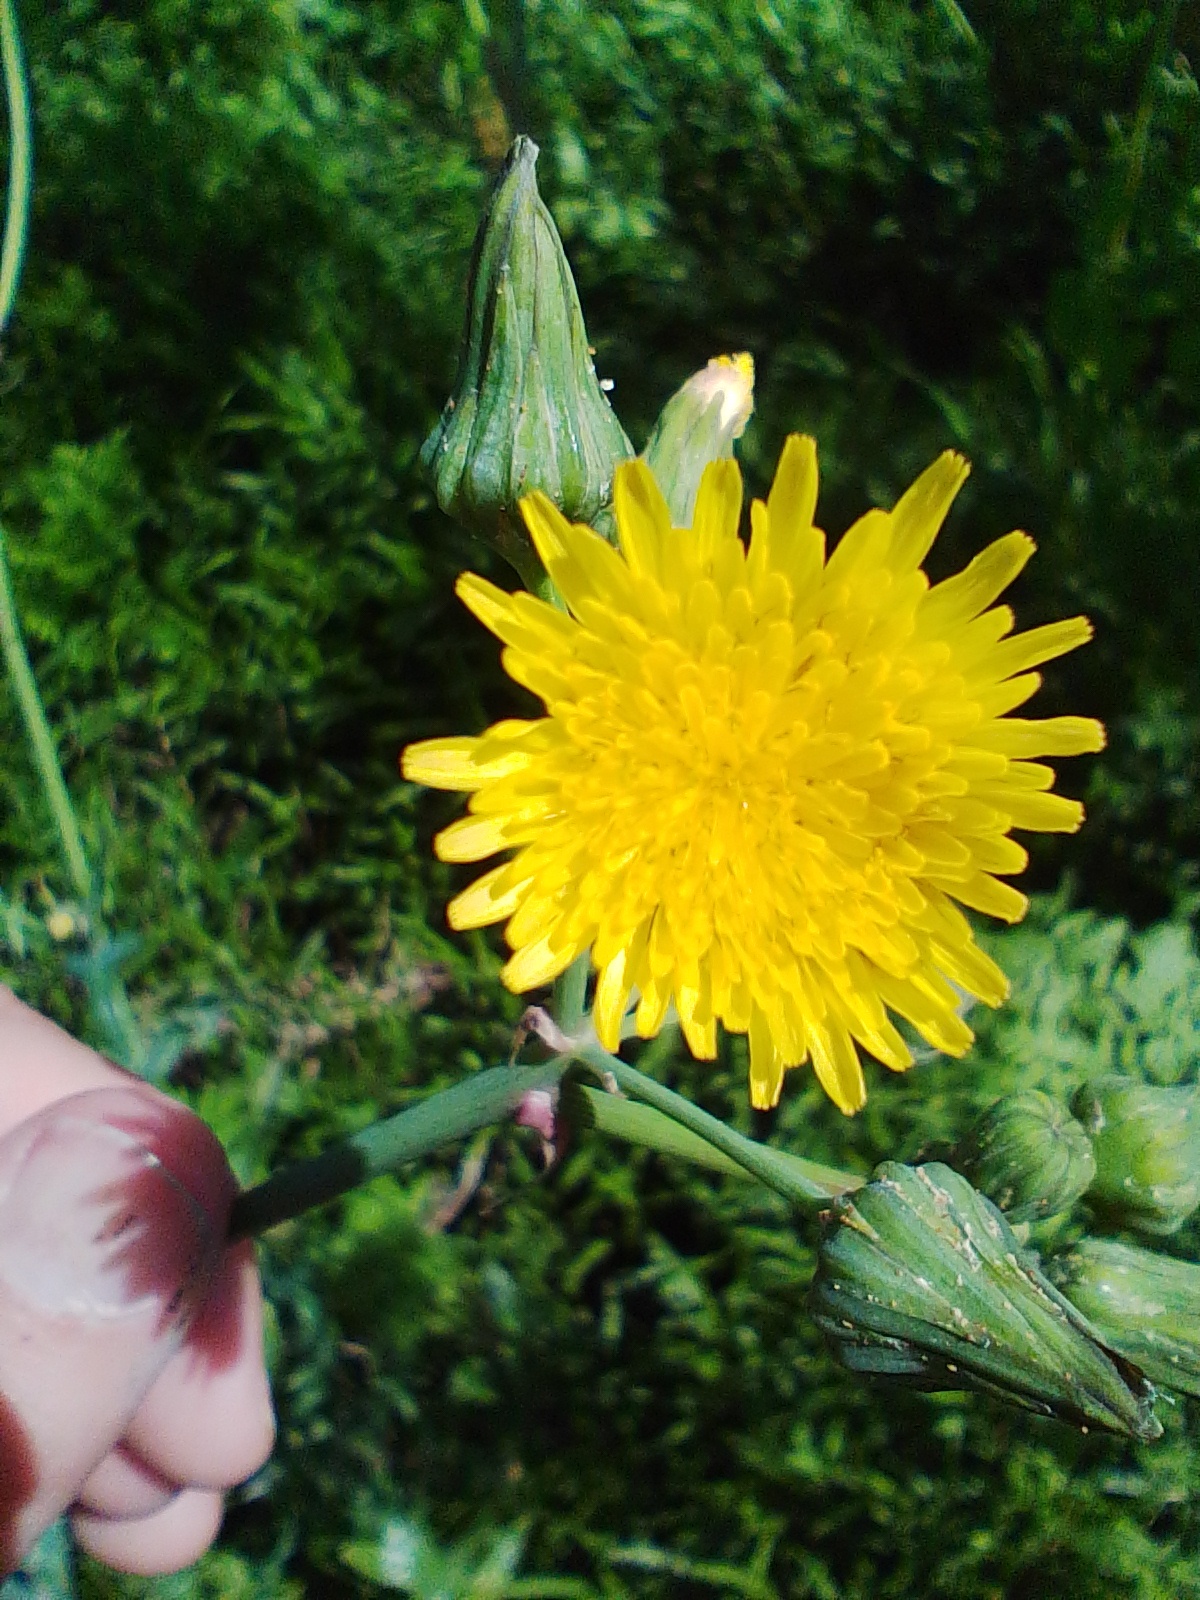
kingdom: Plantae
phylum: Tracheophyta
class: Magnoliopsida
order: Asterales
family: Asteraceae
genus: Sonchus
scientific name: Sonchus oleraceus
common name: Common sowthistle
